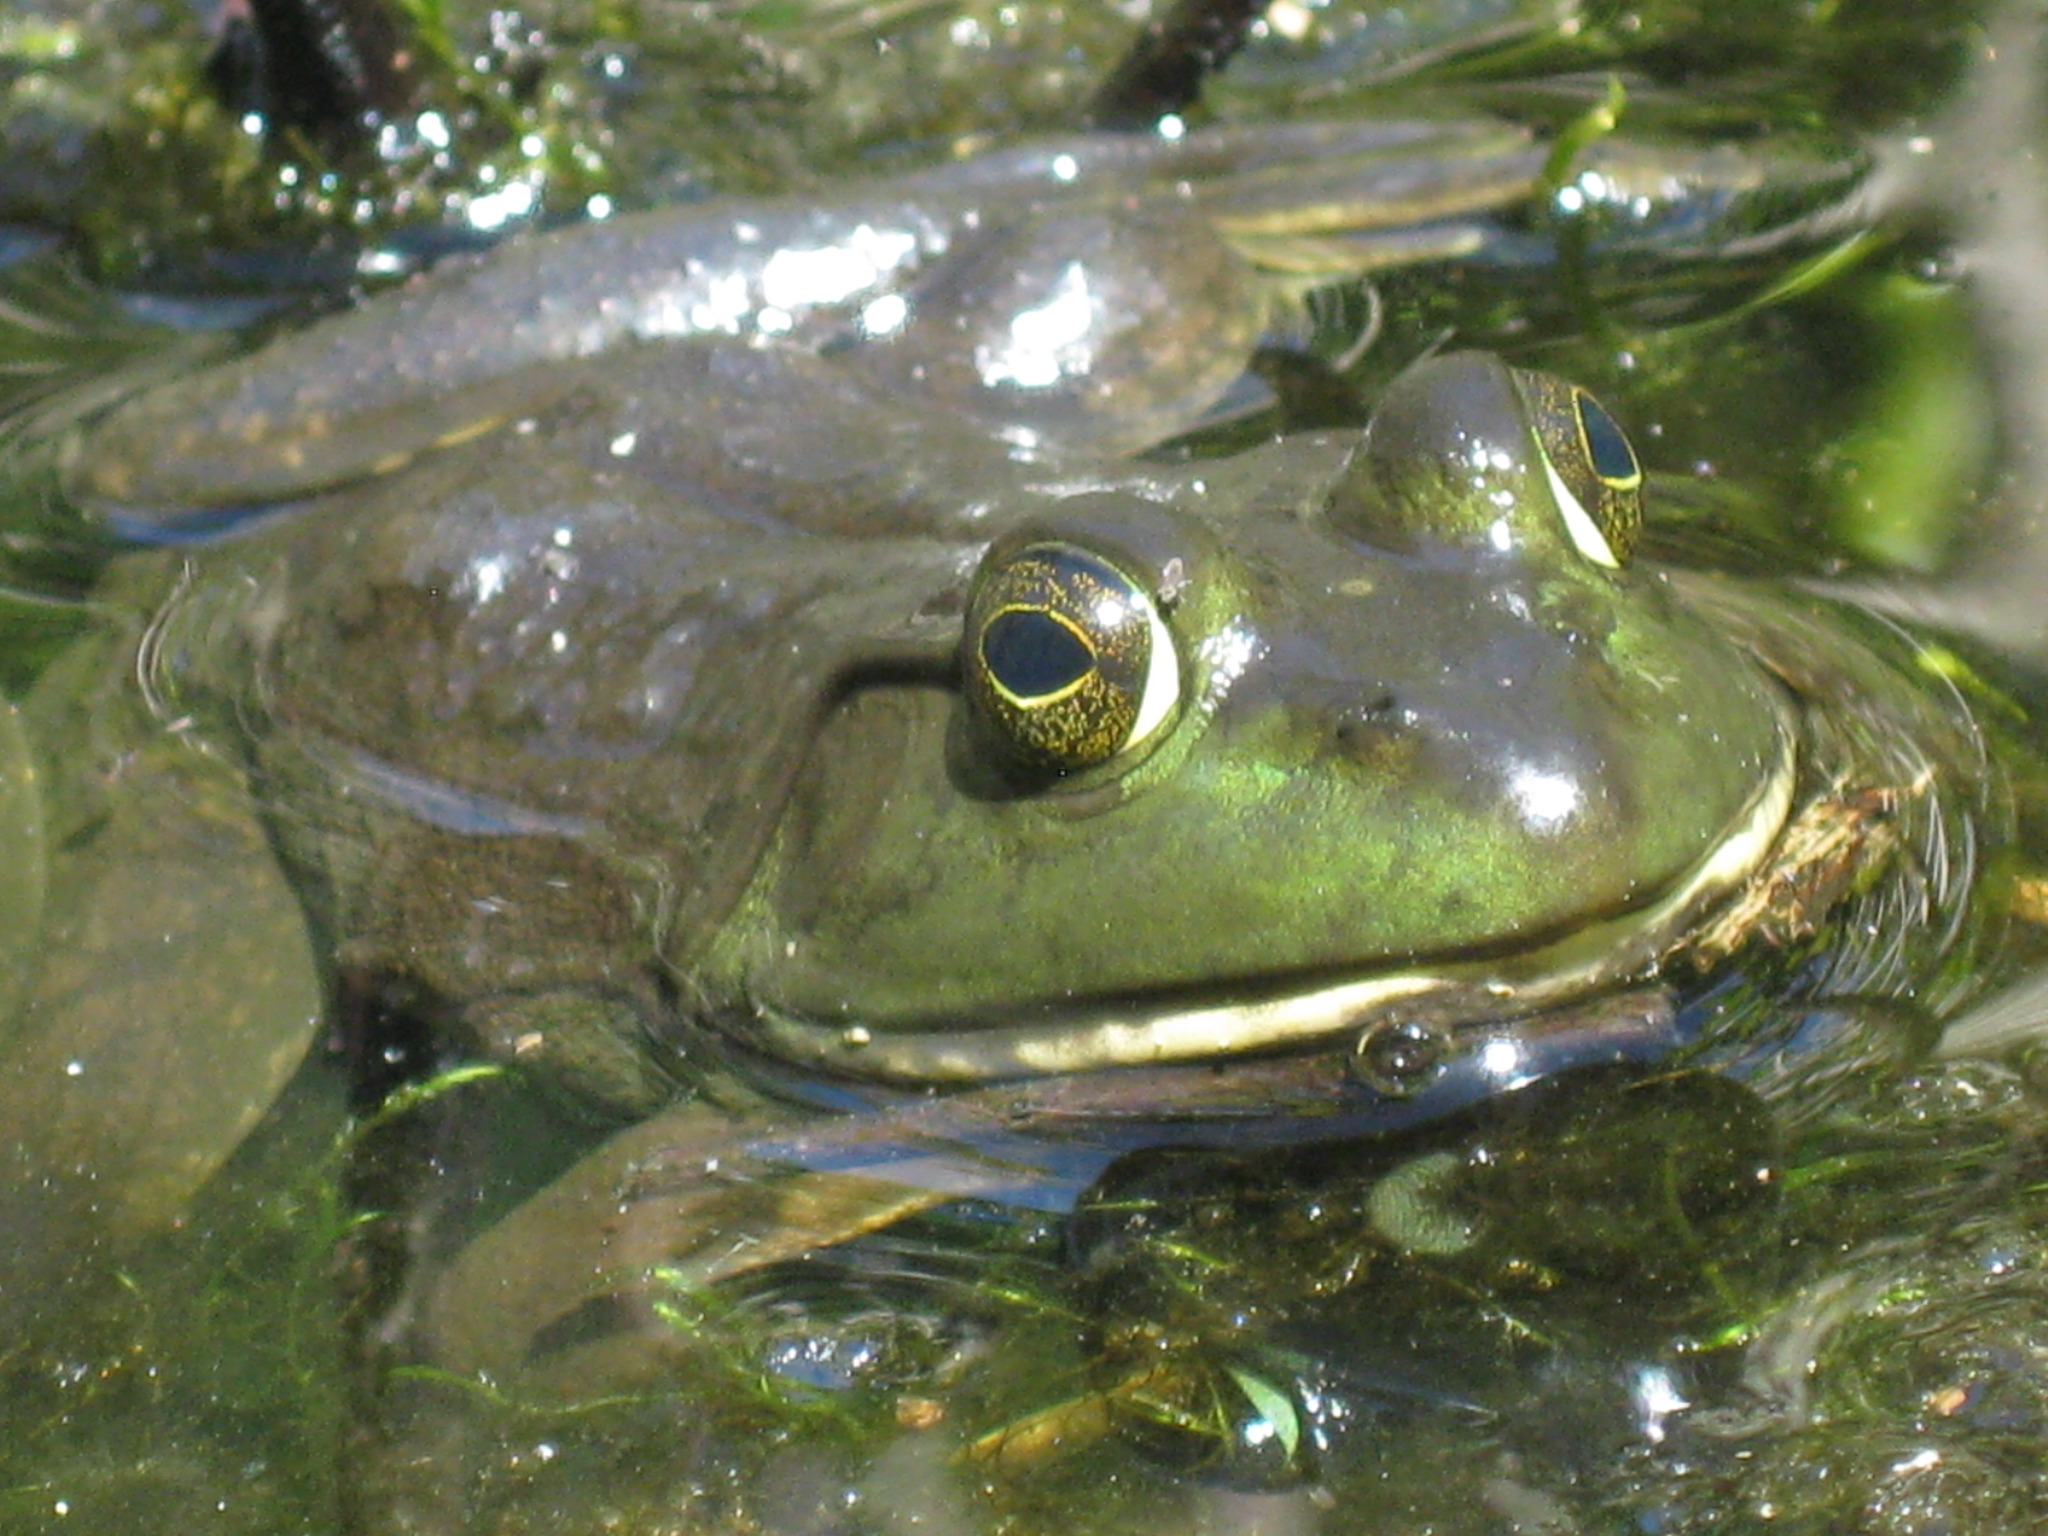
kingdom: Animalia
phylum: Chordata
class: Amphibia
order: Anura
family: Ranidae
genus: Lithobates
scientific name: Lithobates catesbeianus
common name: American bullfrog
